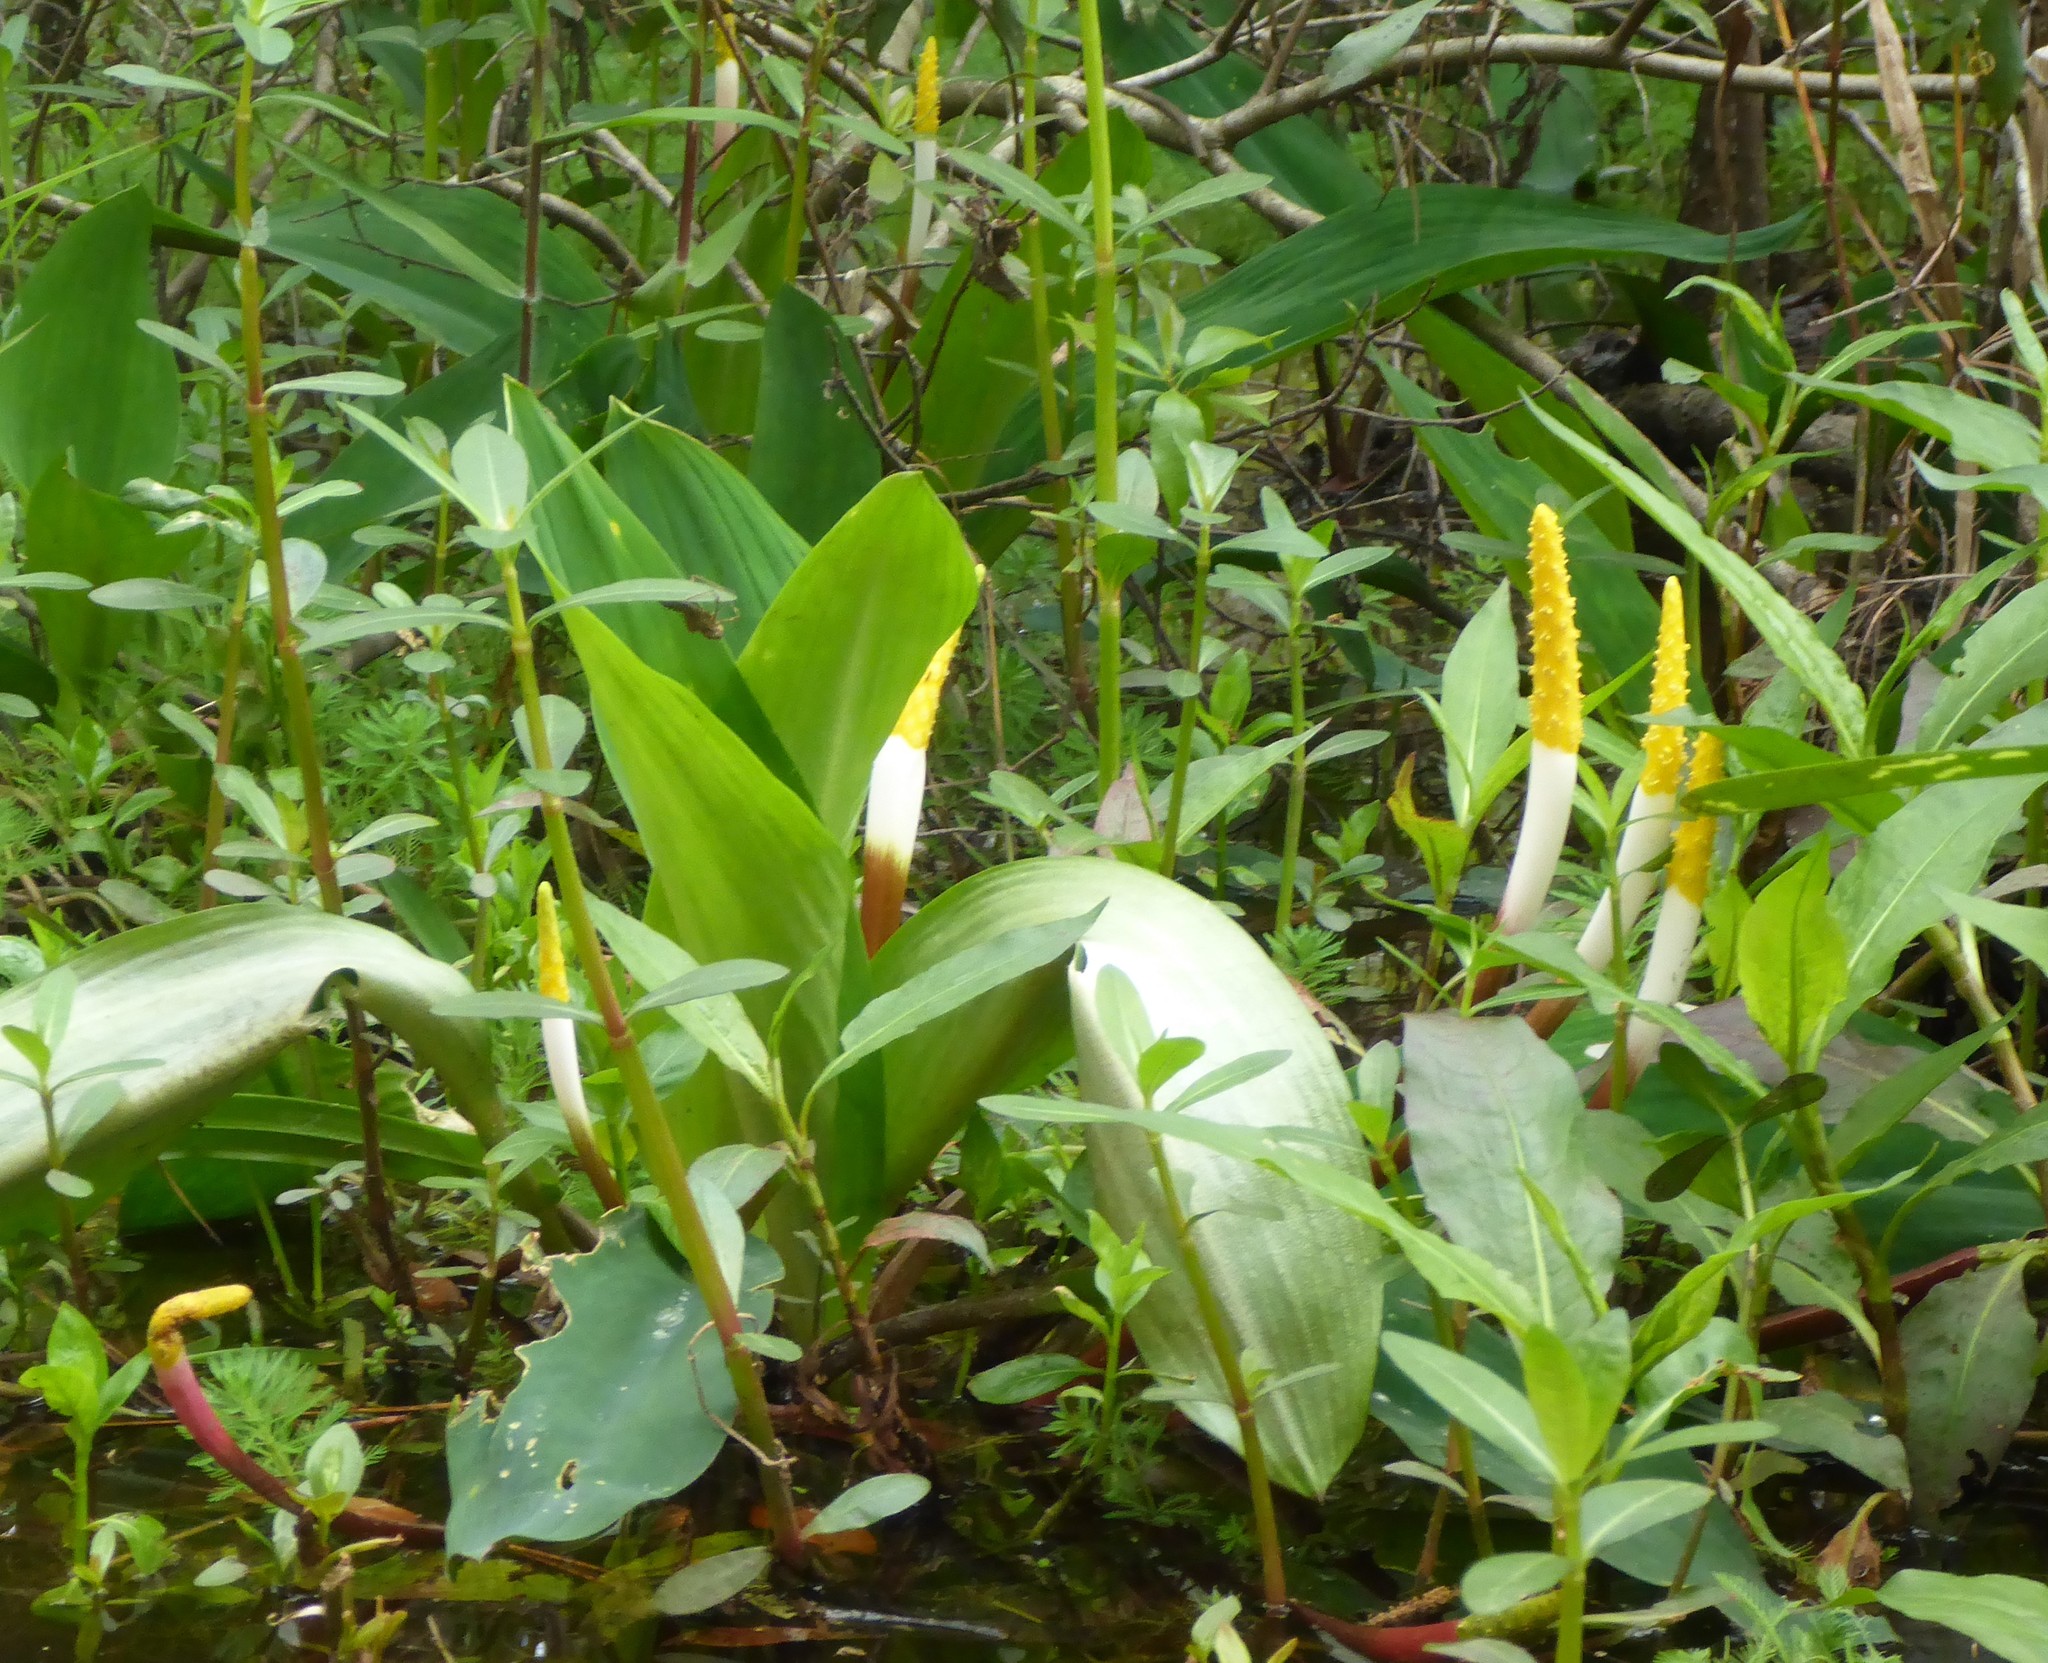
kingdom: Plantae
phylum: Tracheophyta
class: Liliopsida
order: Alismatales
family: Araceae
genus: Orontium
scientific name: Orontium aquaticum
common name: Golden-club
